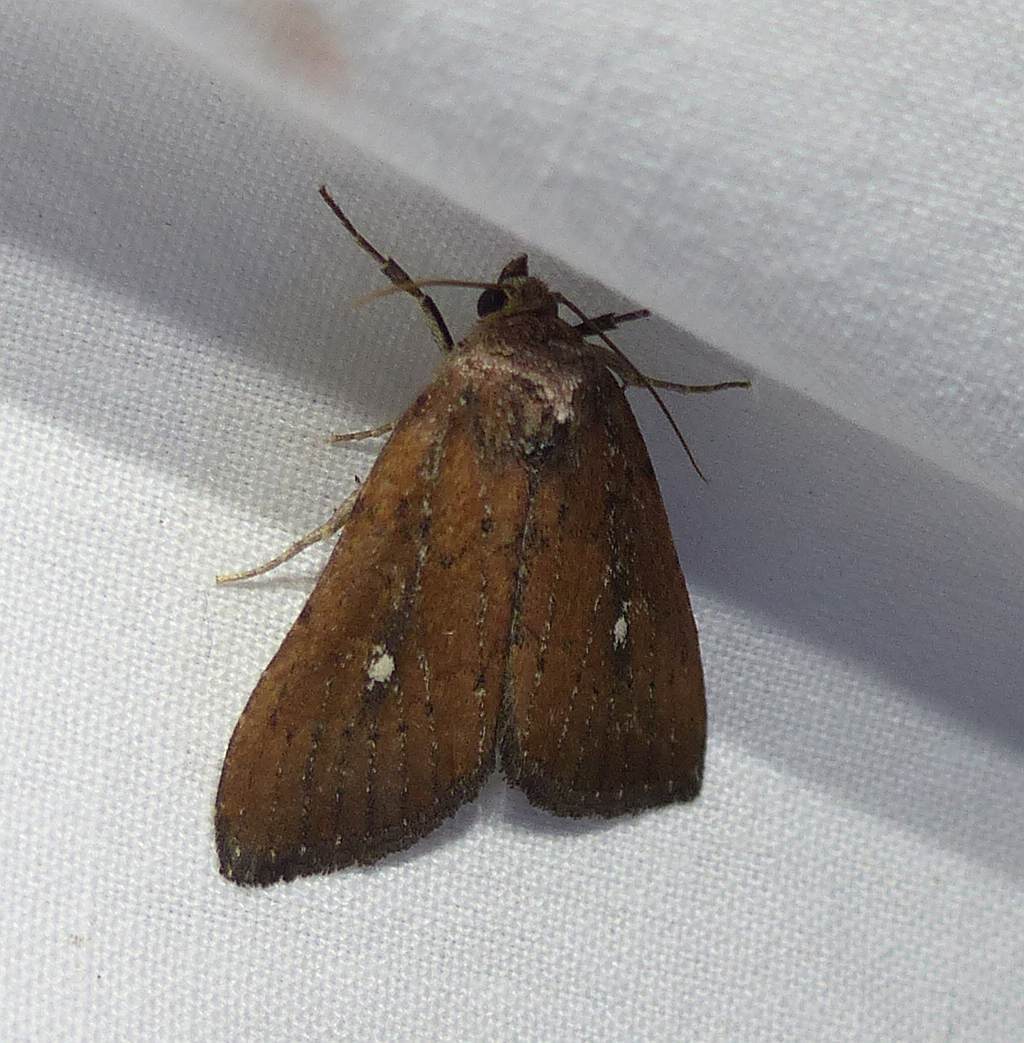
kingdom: Animalia
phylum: Arthropoda
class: Insecta
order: Lepidoptera
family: Noctuidae
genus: Condica
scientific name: Condica videns
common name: White-dotted groundling
